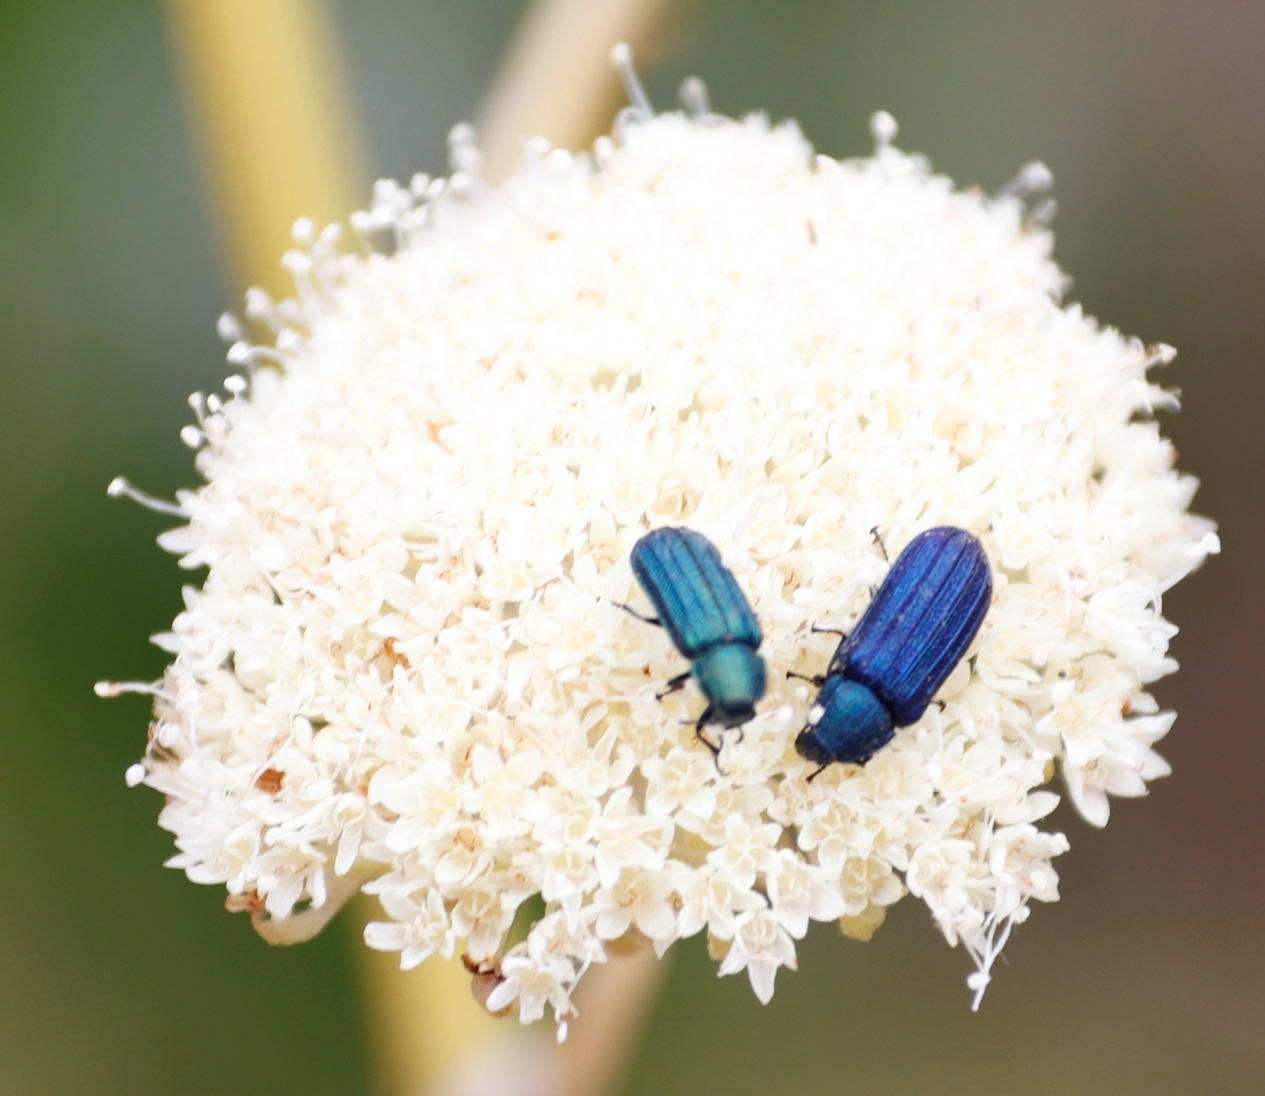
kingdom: Plantae
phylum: Tracheophyta
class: Magnoliopsida
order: Apiales
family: Apiaceae
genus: Hermas
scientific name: Hermas villosa
